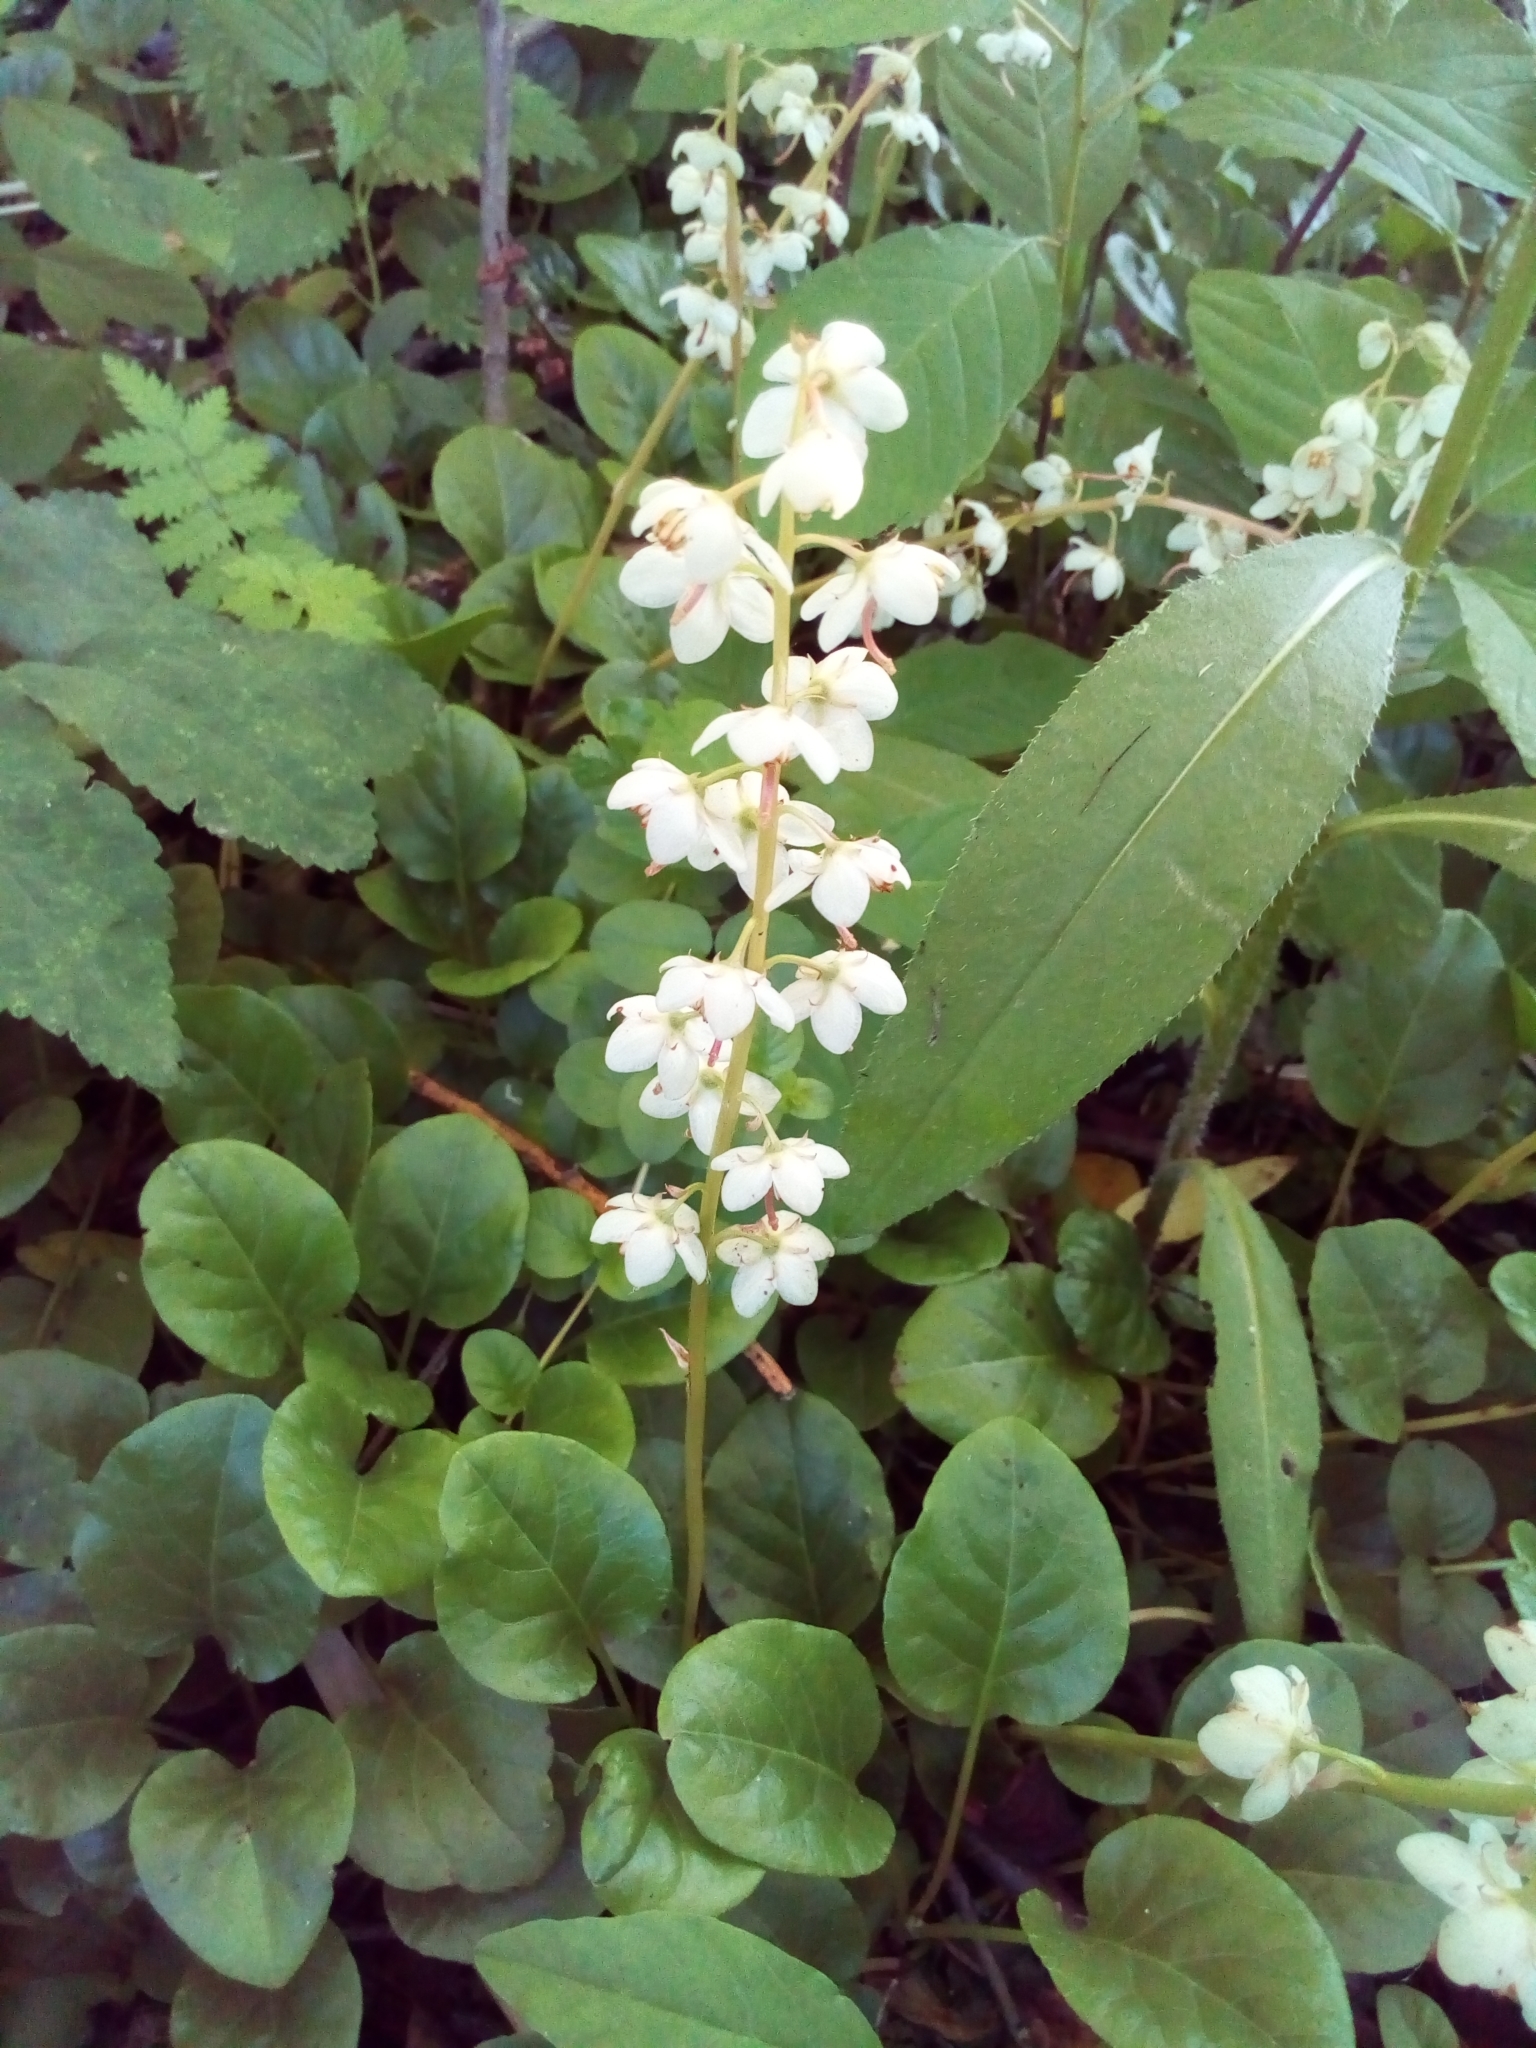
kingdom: Plantae
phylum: Tracheophyta
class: Magnoliopsida
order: Ericales
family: Ericaceae
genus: Pyrola
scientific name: Pyrola rotundifolia
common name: Round-leaved wintergreen
